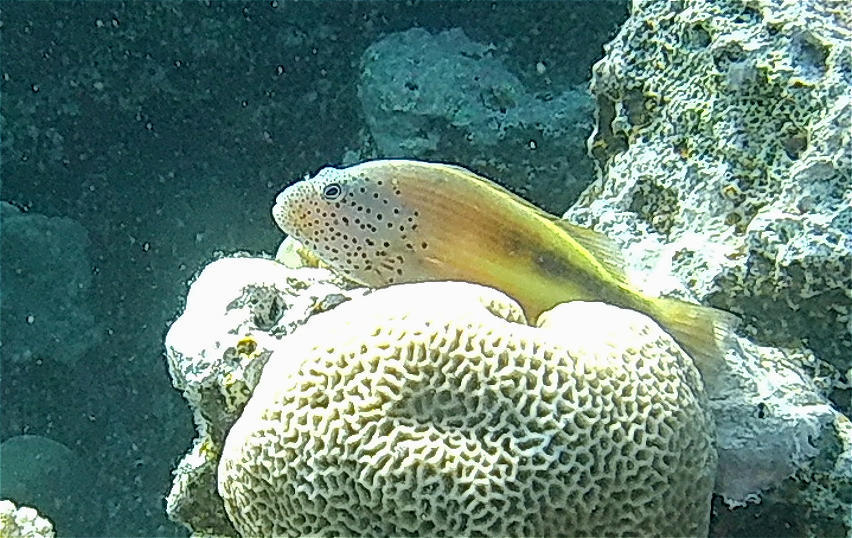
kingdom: Animalia
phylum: Chordata
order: Perciformes
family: Cirrhitidae
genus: Paracirrhites
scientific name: Paracirrhites forsteri
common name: Freckled hawkfish
